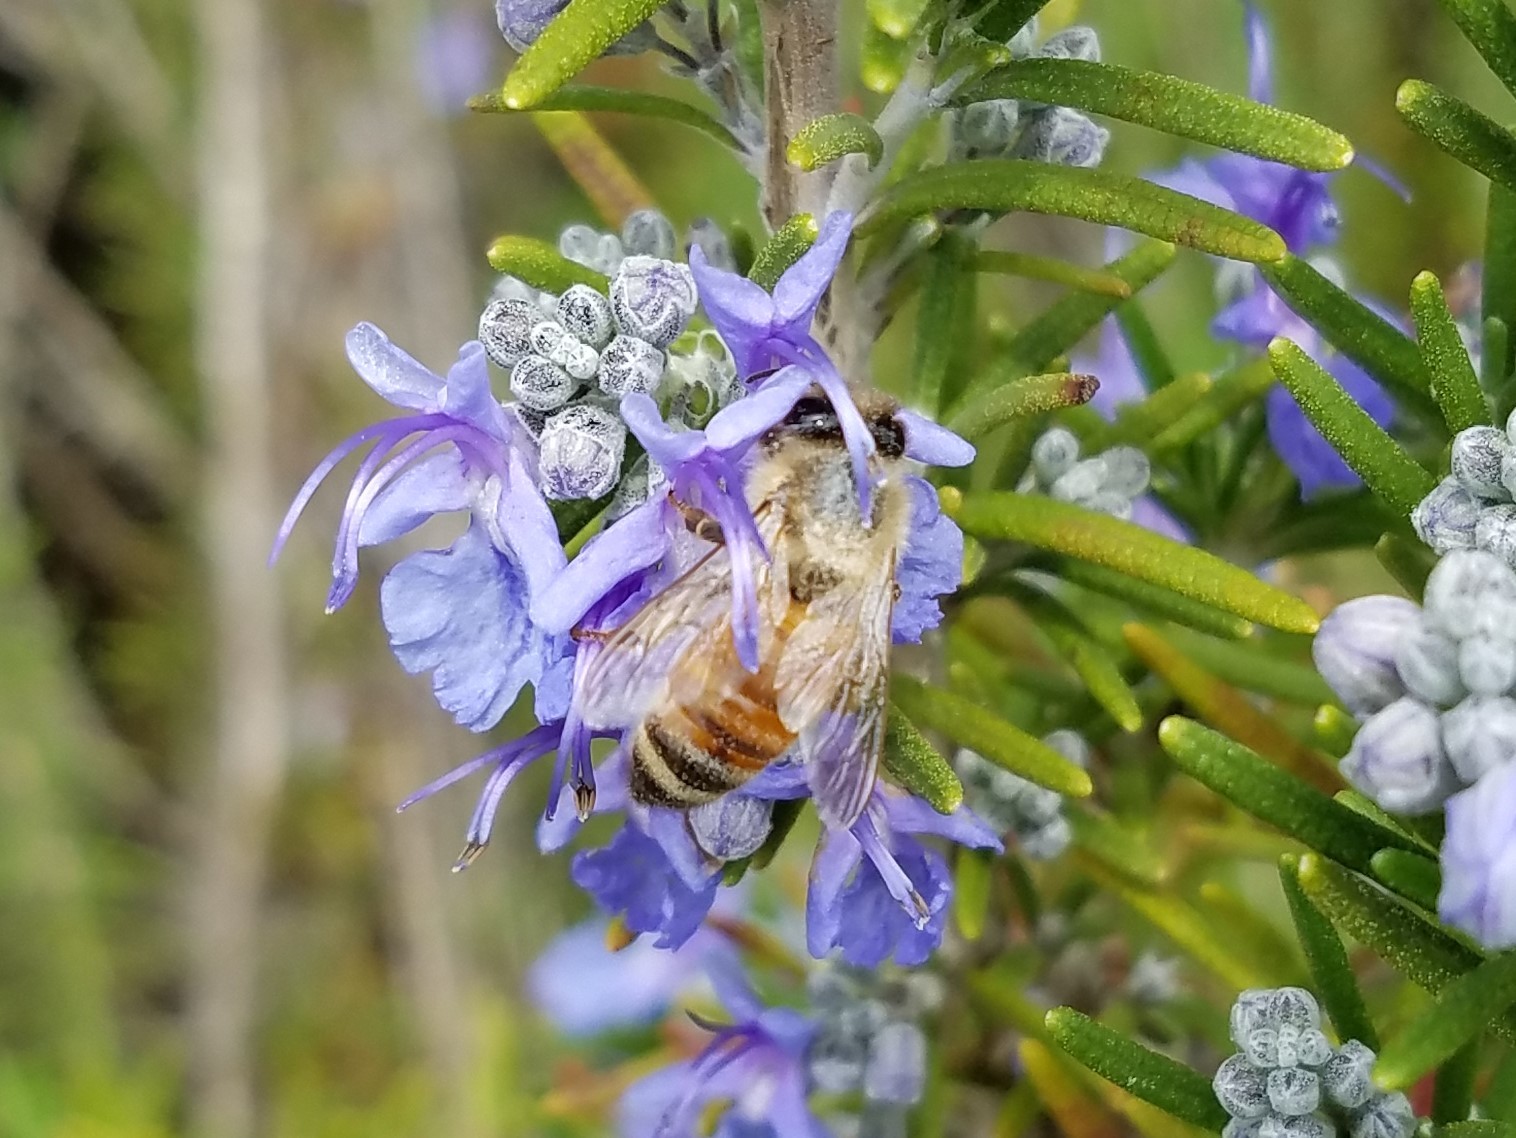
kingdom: Animalia
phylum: Arthropoda
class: Insecta
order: Hymenoptera
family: Apidae
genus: Apis
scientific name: Apis mellifera
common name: Honey bee
